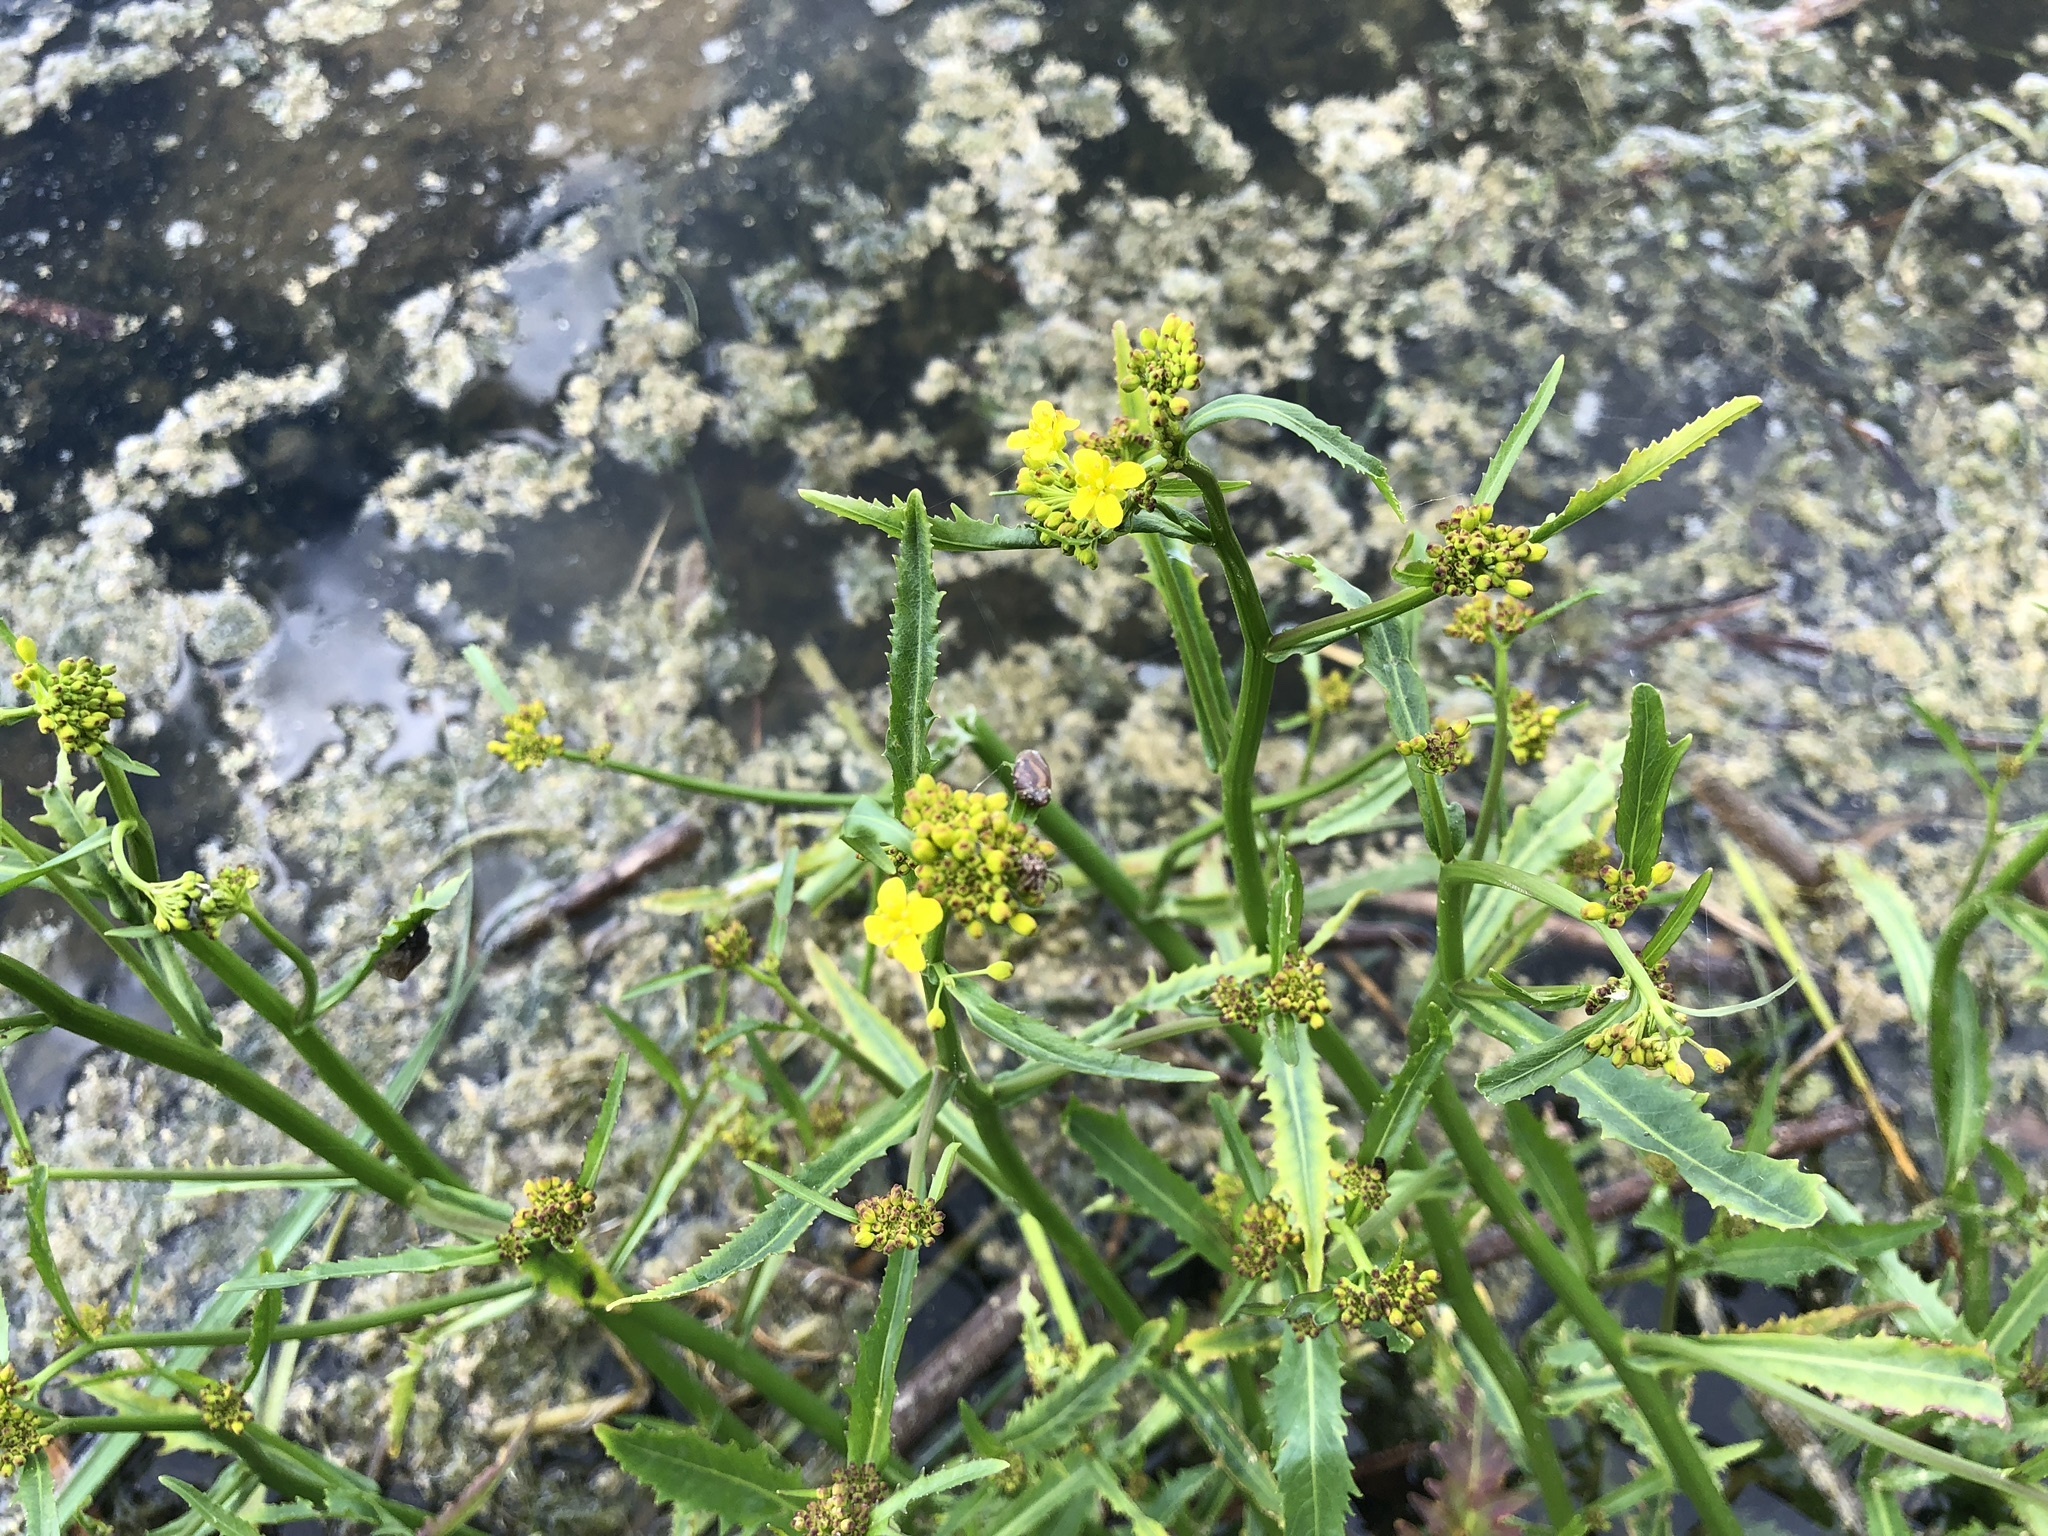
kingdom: Plantae
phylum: Tracheophyta
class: Magnoliopsida
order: Brassicales
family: Brassicaceae
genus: Rorippa
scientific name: Rorippa amphibia
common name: Great yellow-cress
